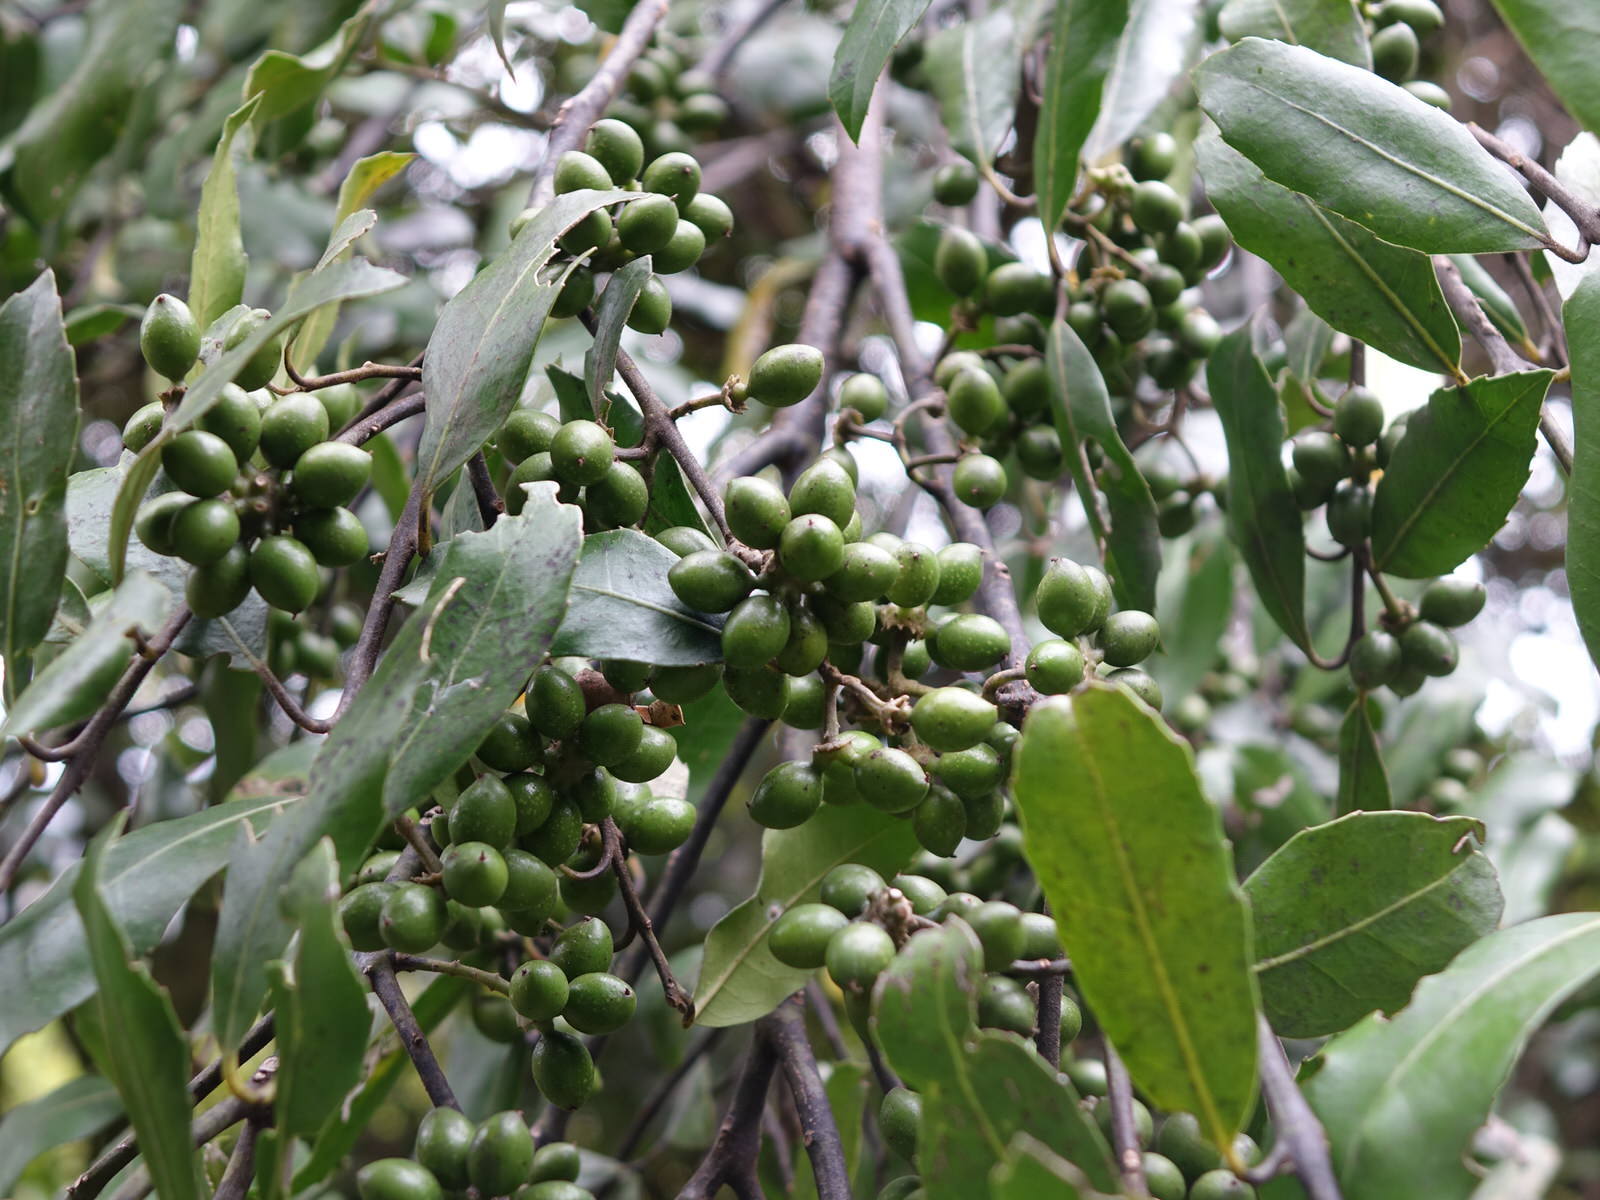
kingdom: Plantae
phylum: Tracheophyta
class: Magnoliopsida
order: Laurales
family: Monimiaceae
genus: Hedycarya
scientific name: Hedycarya arborea
